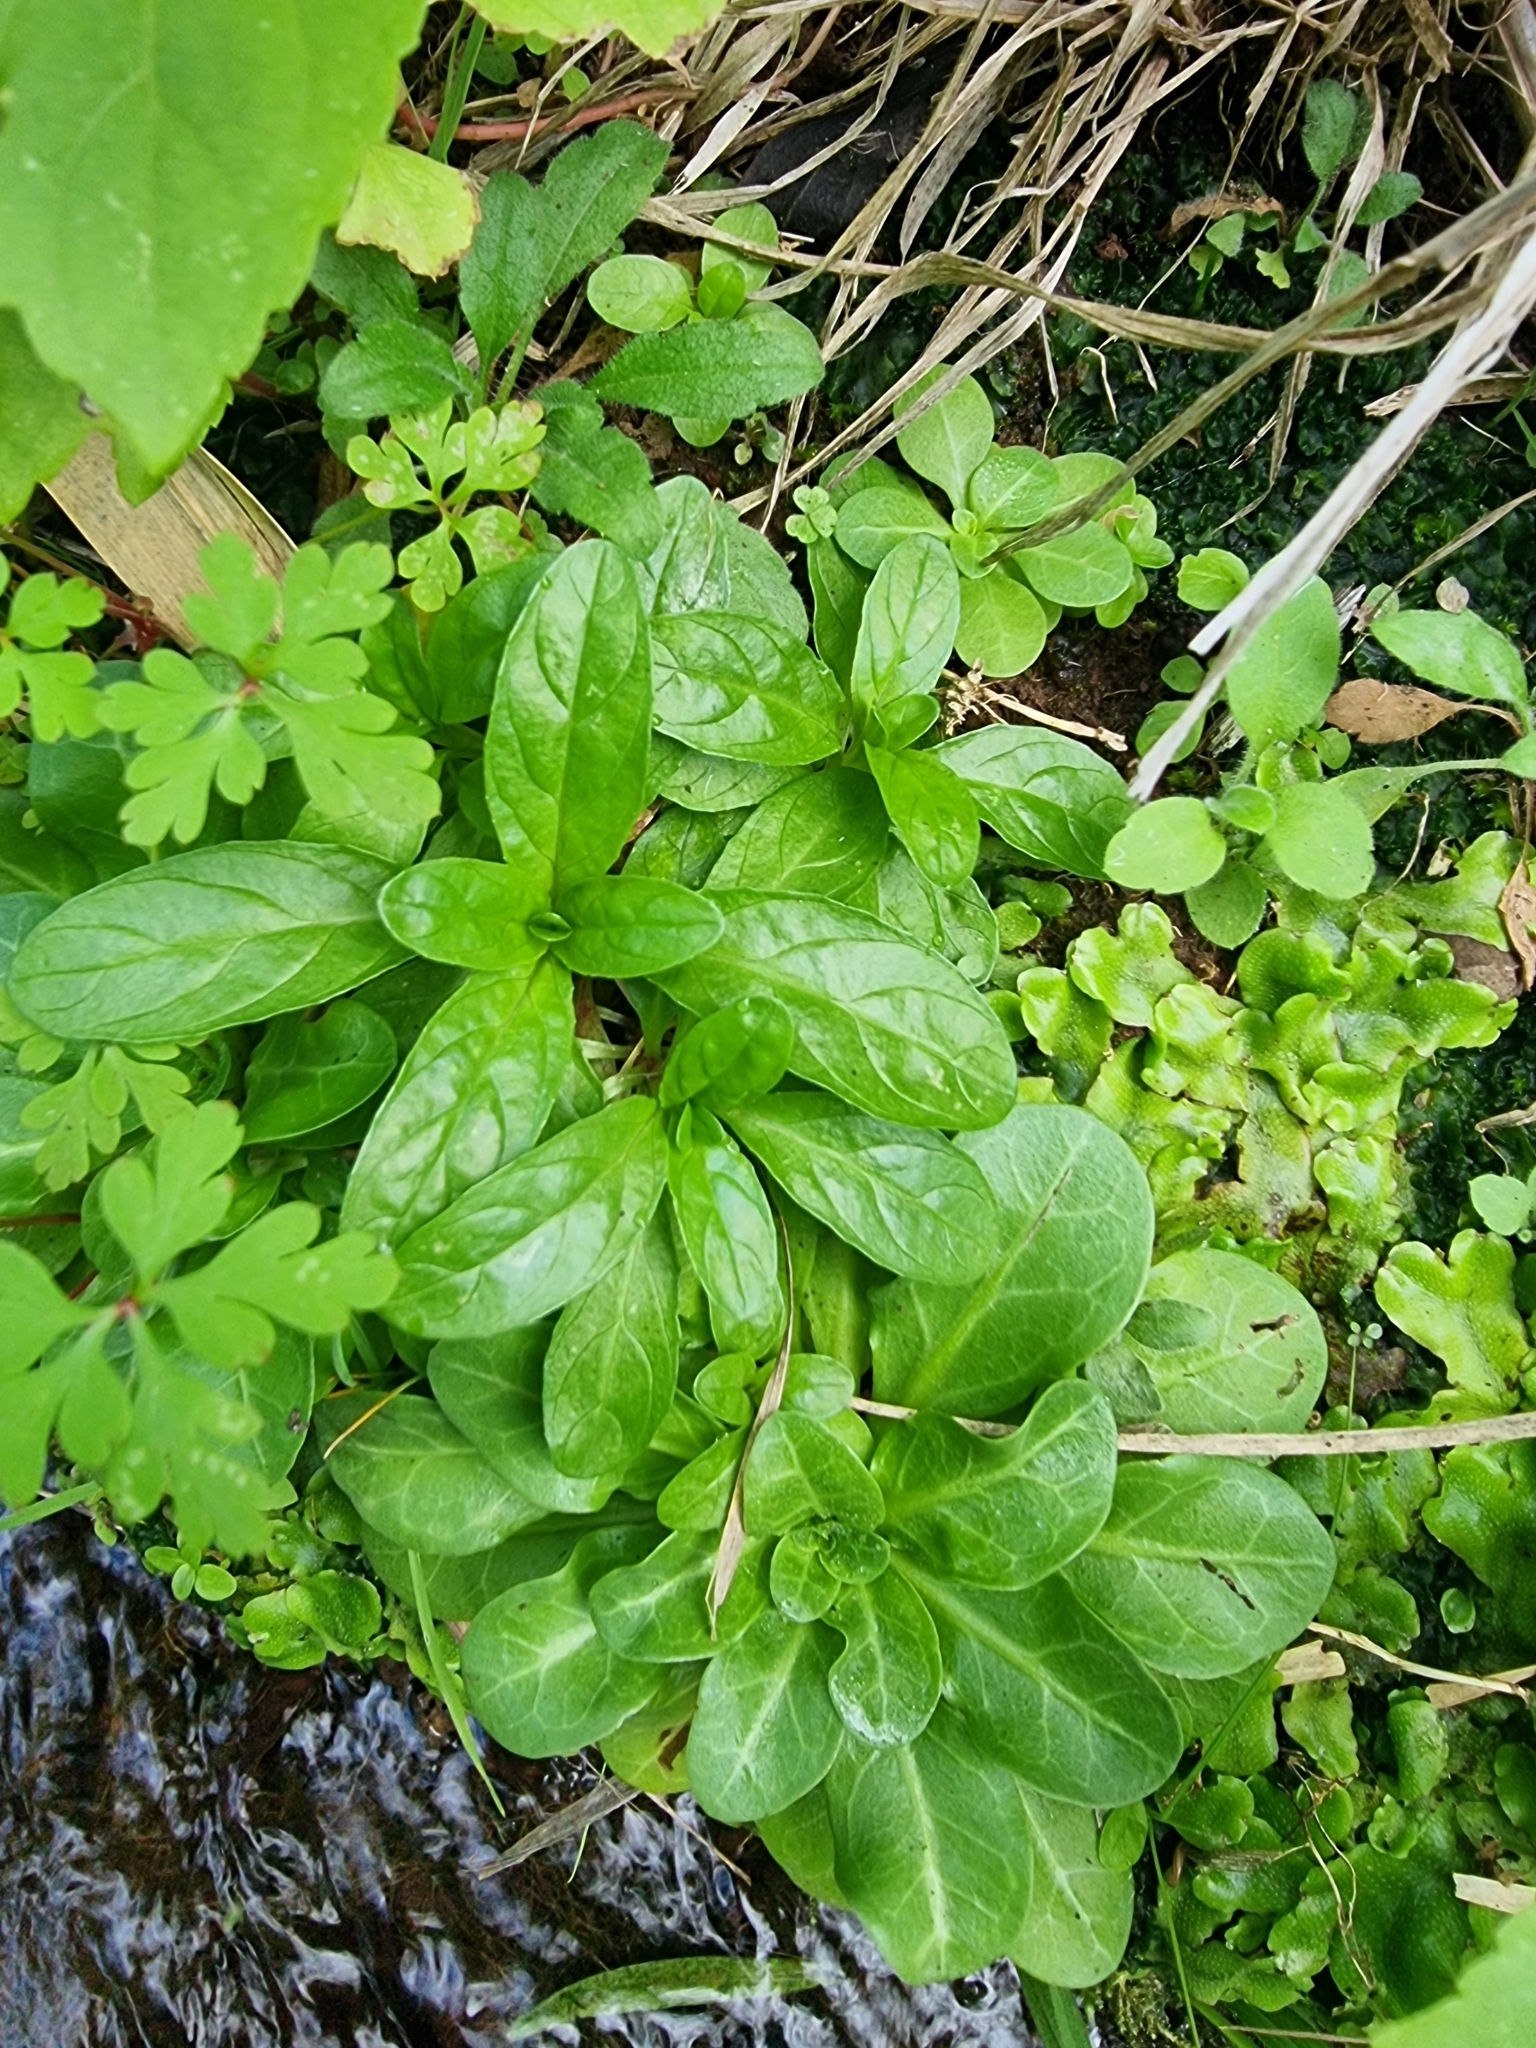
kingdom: Plantae
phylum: Tracheophyta
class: Magnoliopsida
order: Ericales
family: Primulaceae
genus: Samolus
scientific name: Samolus valerandi
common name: Brookweed
